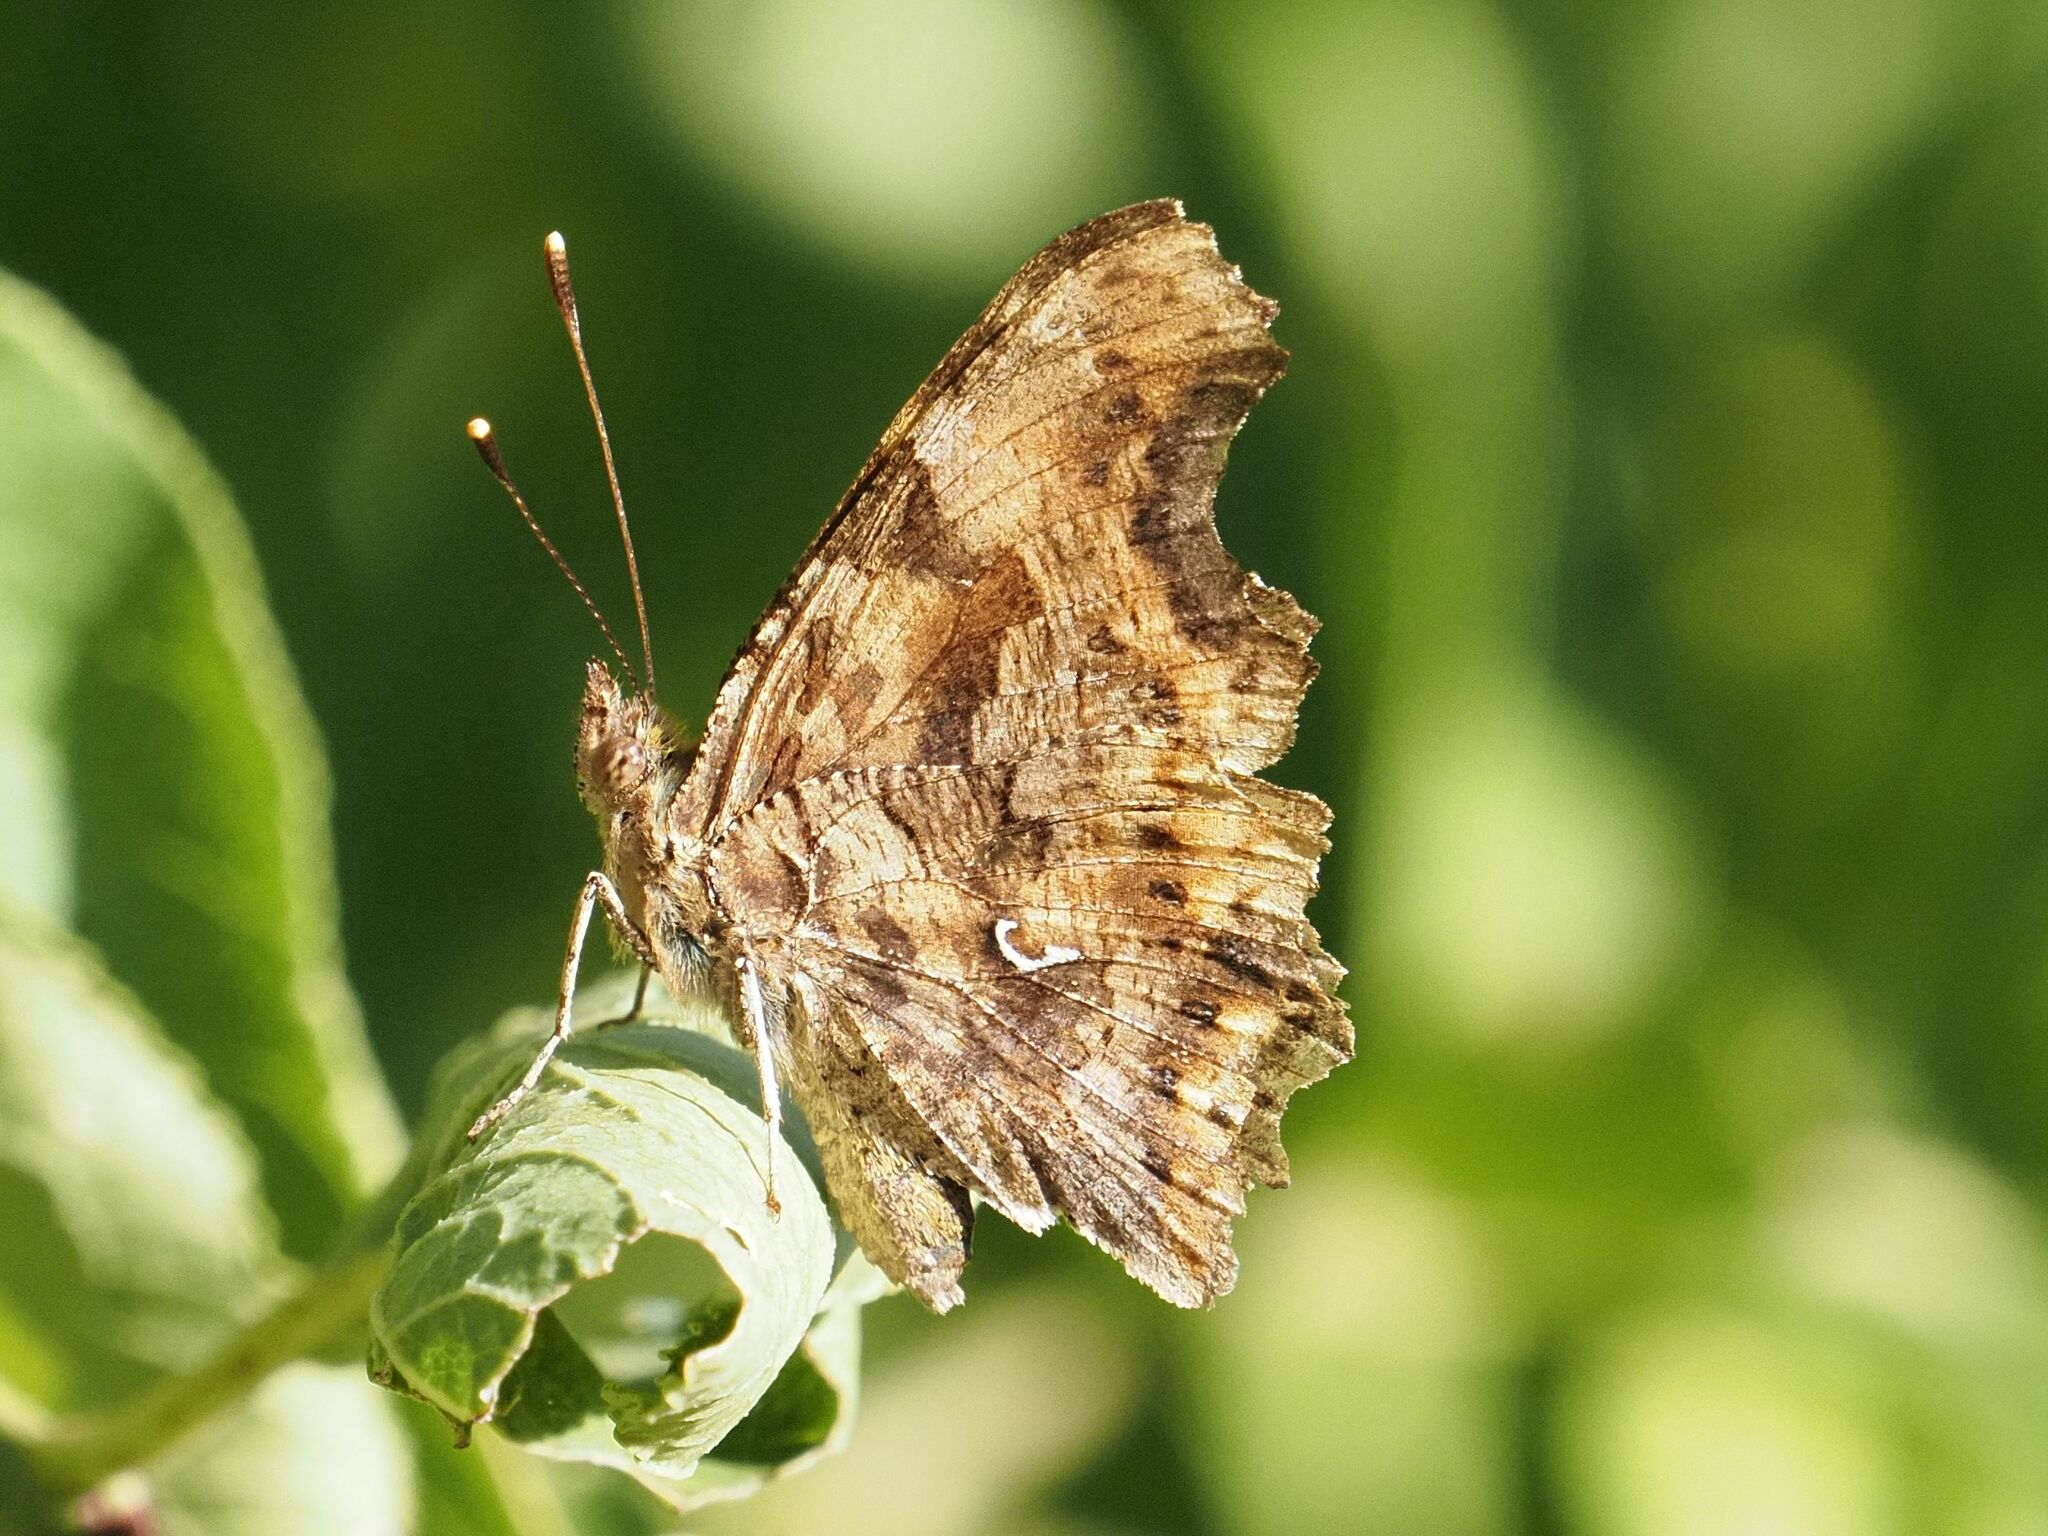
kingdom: Animalia
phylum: Arthropoda
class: Insecta
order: Lepidoptera
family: Nymphalidae
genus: Polygonia
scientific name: Polygonia c-album
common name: Comma
